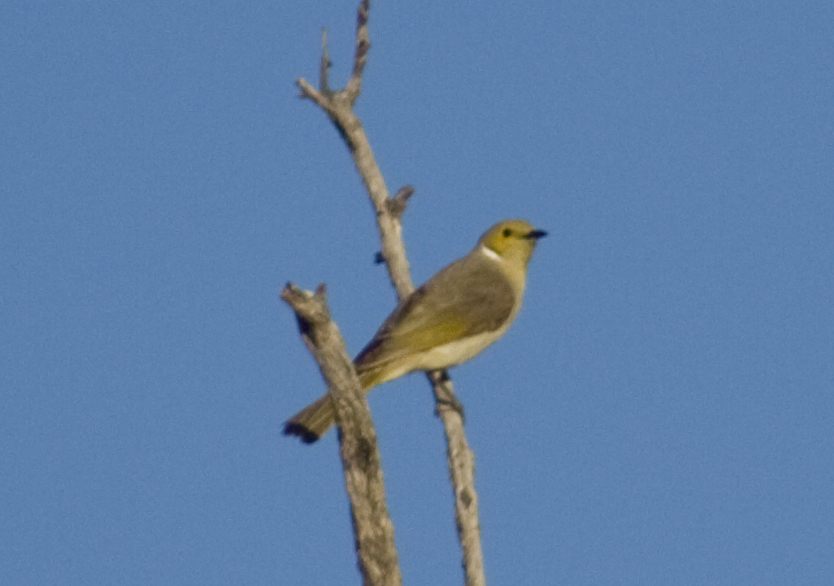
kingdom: Animalia
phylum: Chordata
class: Aves
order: Passeriformes
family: Meliphagidae
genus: Ptilotula
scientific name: Ptilotula penicillata
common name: White-plumed honeyeater
